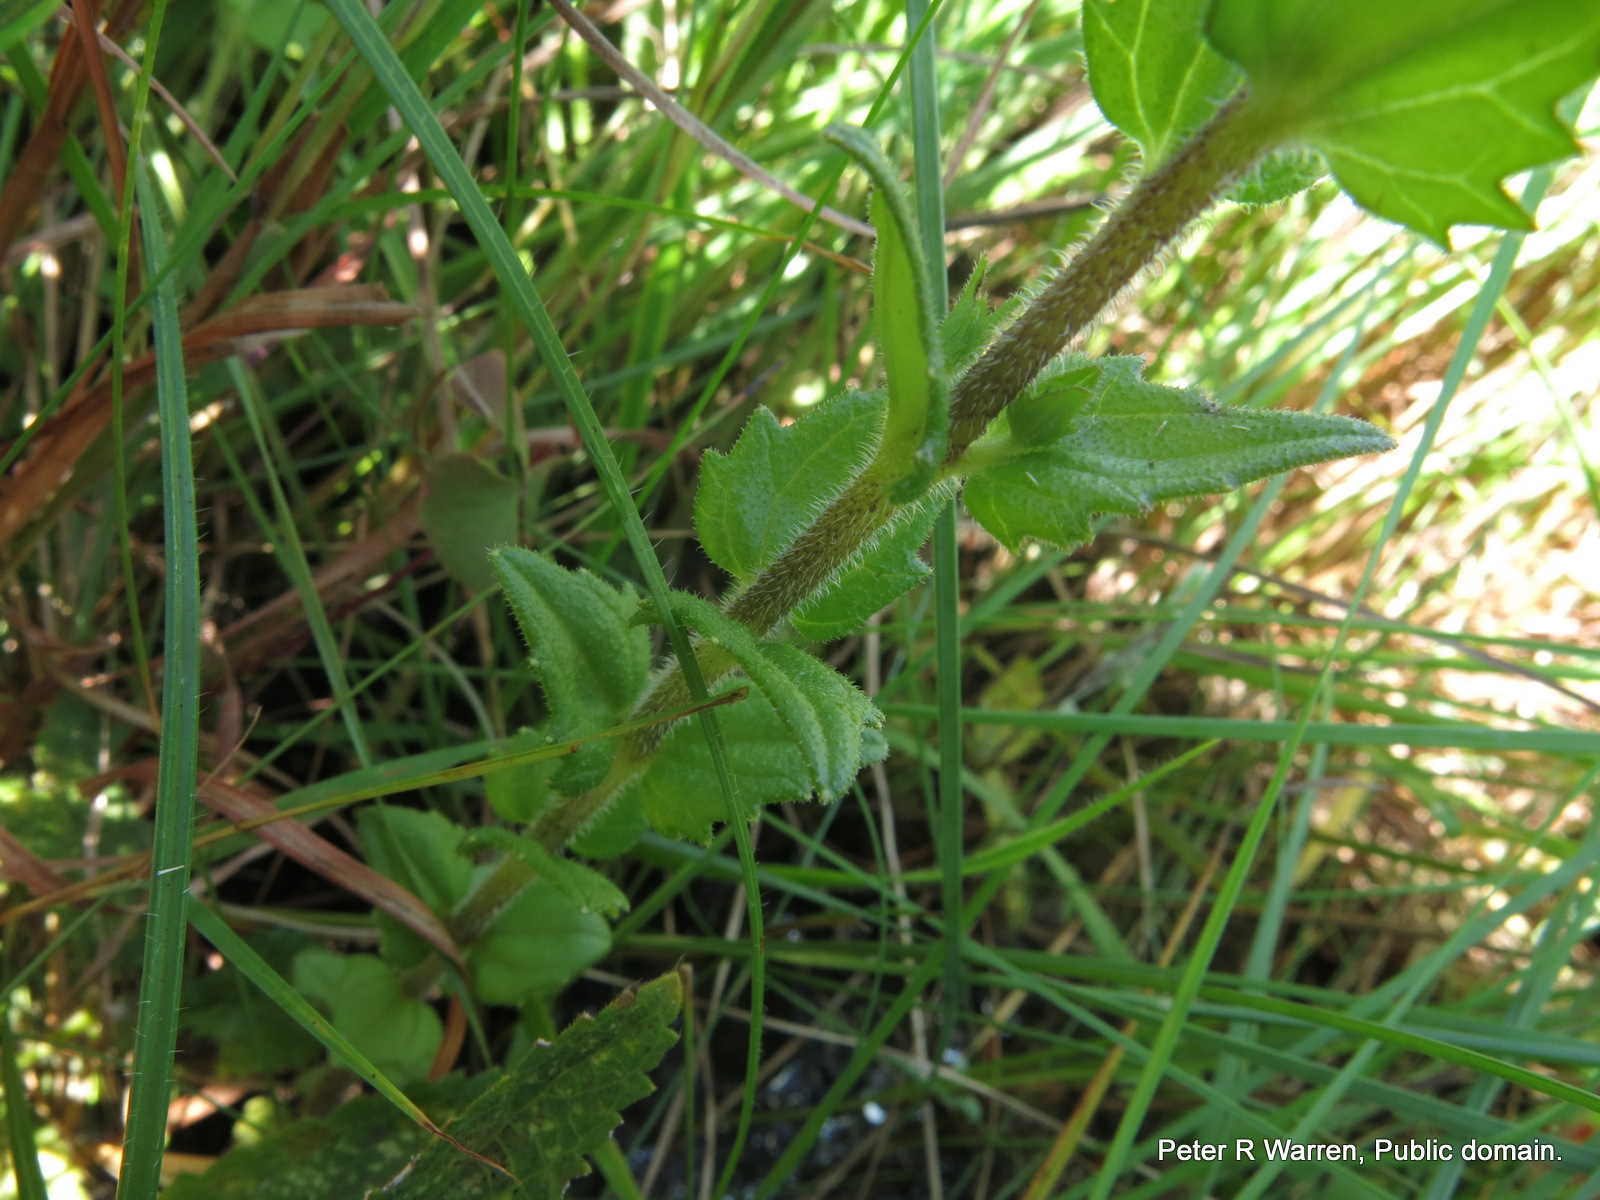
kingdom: Plantae
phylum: Tracheophyta
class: Magnoliopsida
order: Lamiales
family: Orobanchaceae
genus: Alectra
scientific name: Alectra sessiliflora
